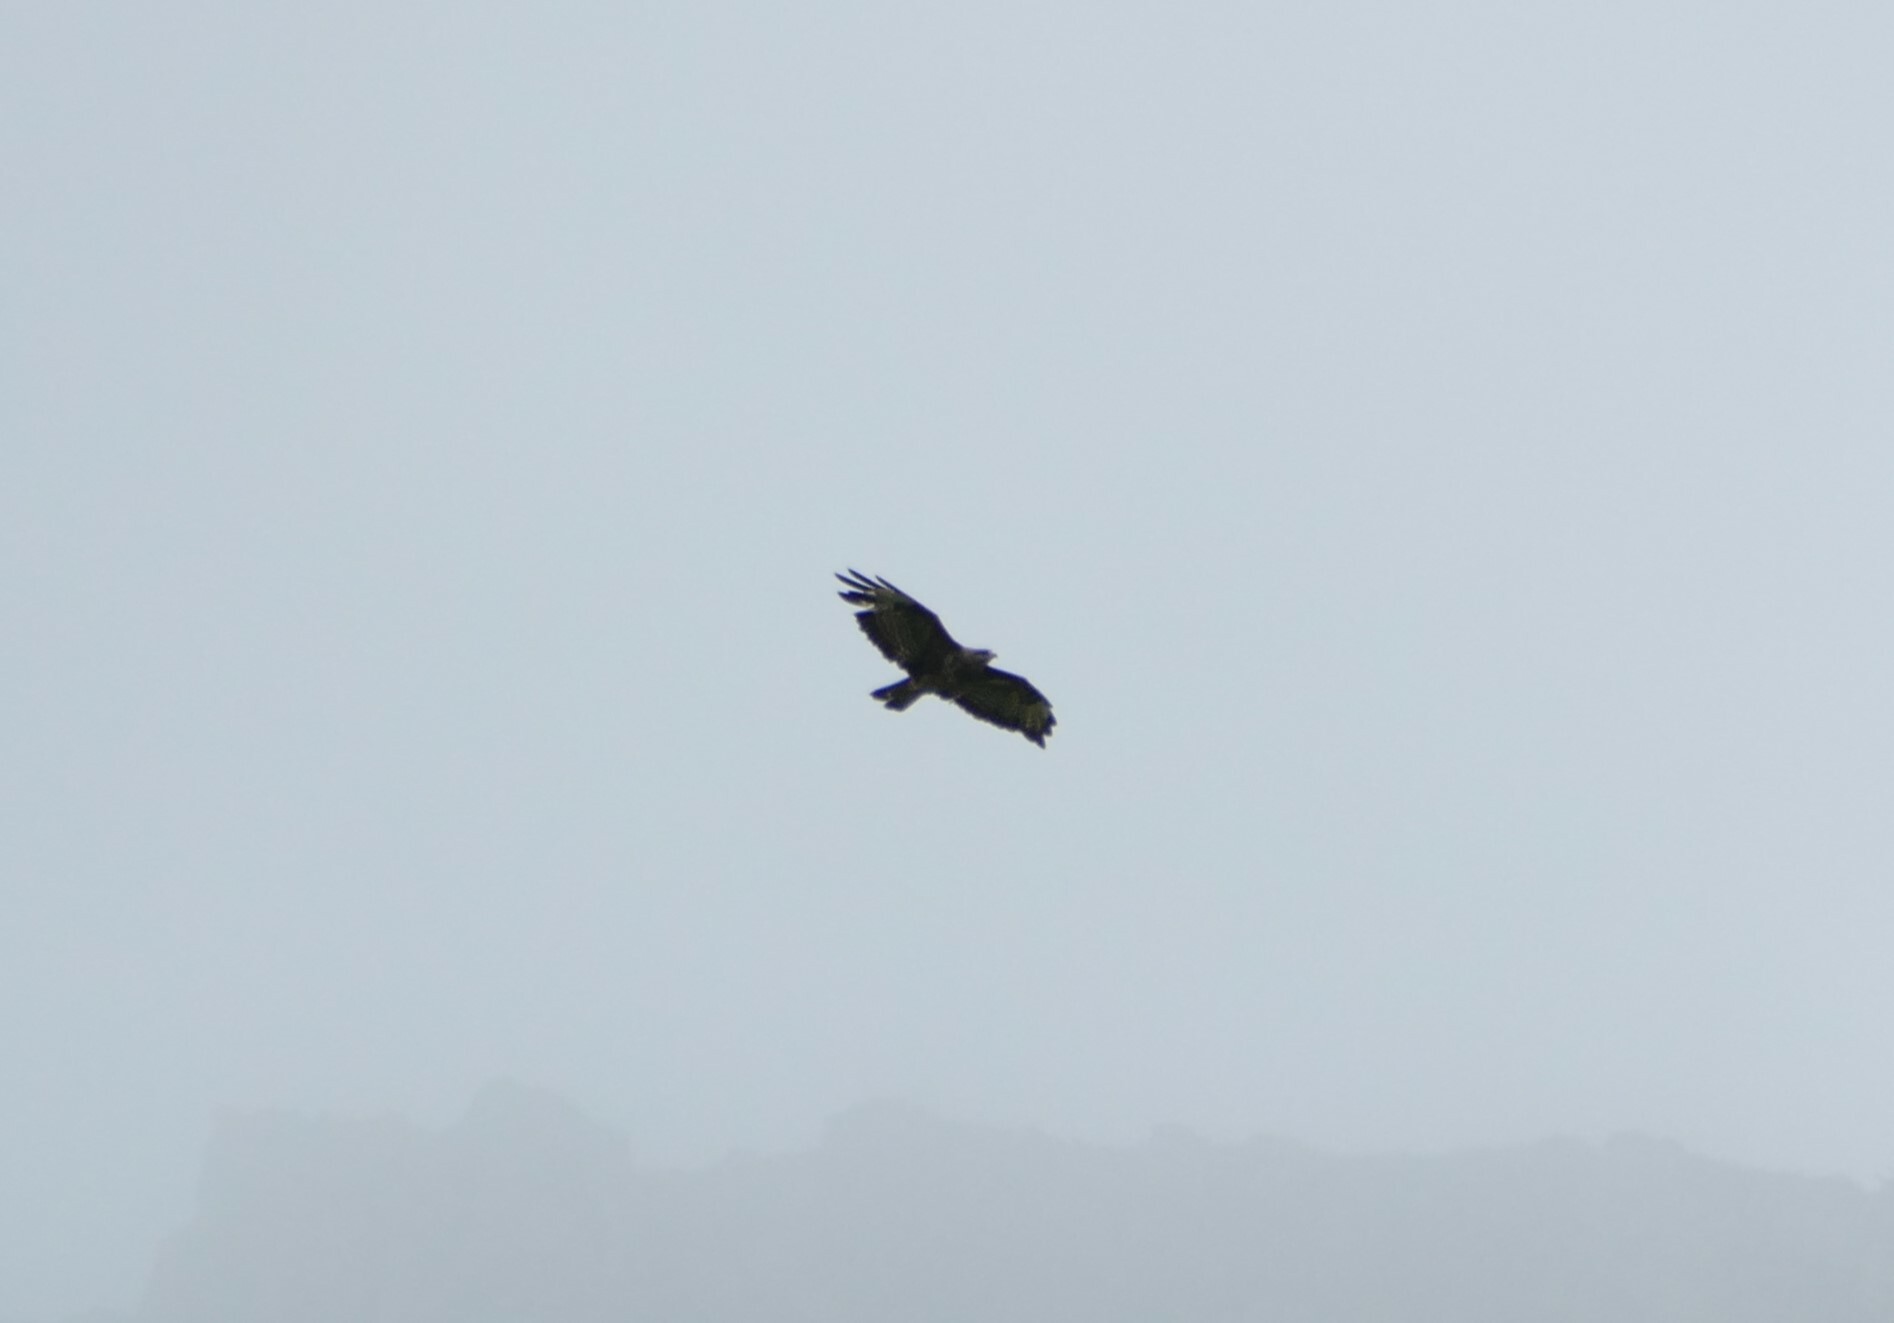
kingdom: Animalia
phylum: Chordata
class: Aves
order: Accipitriformes
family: Accipitridae
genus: Buteo
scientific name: Buteo buteo
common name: Common buzzard
